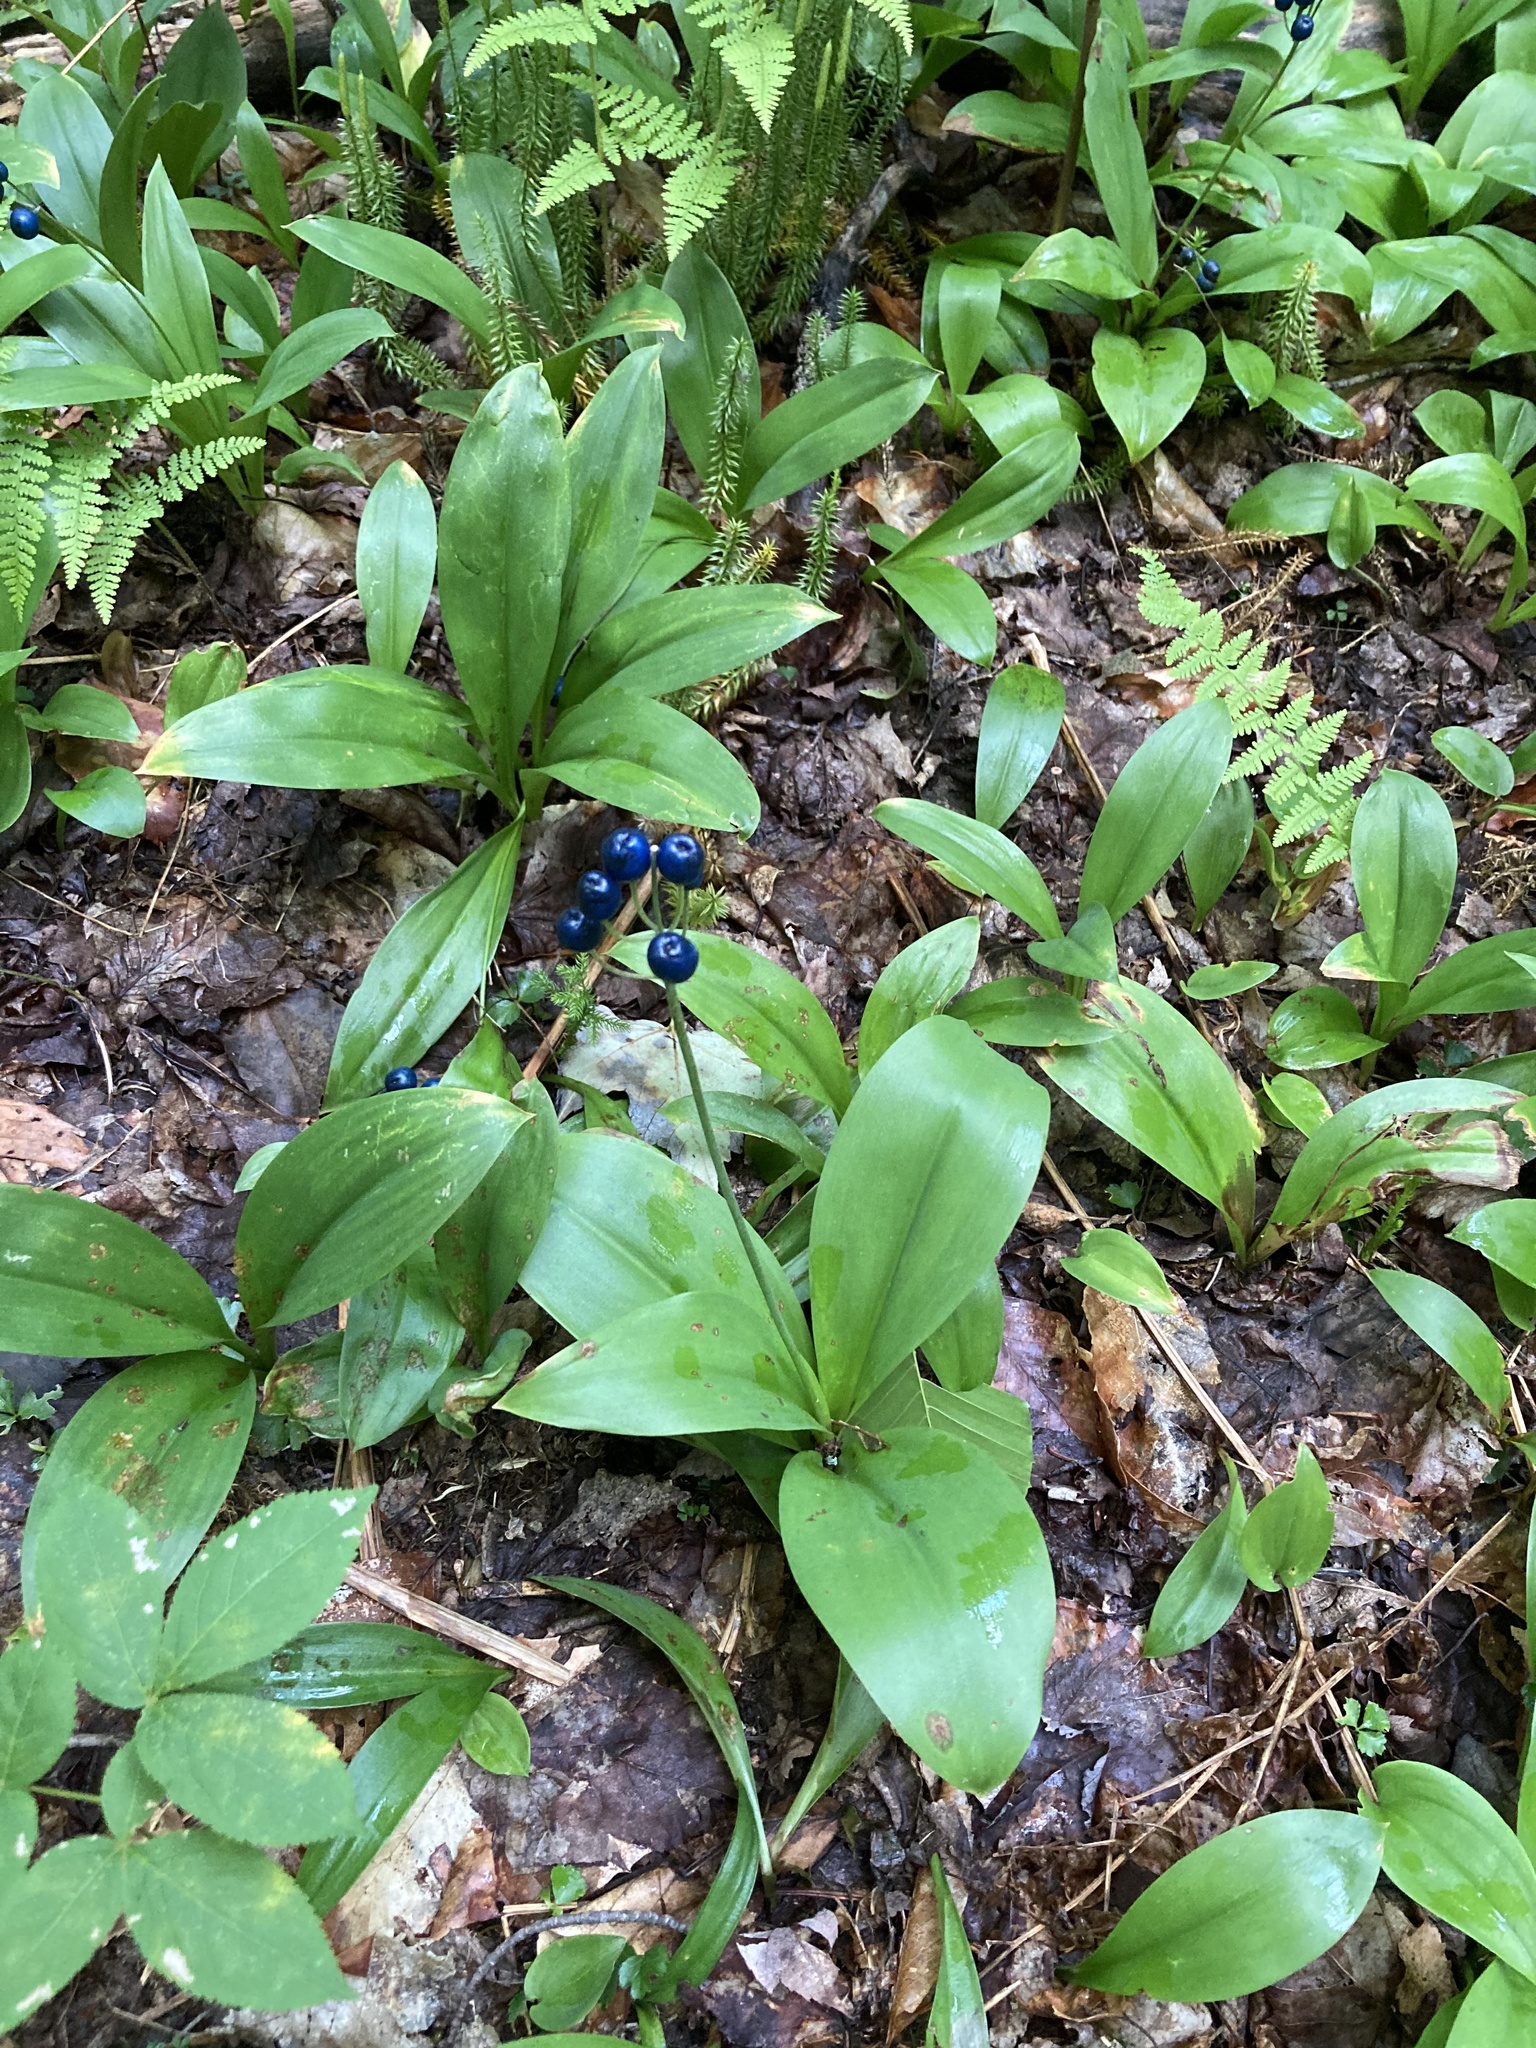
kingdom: Plantae
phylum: Tracheophyta
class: Liliopsida
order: Liliales
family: Liliaceae
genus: Clintonia
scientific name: Clintonia borealis
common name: Yellow clintonia
